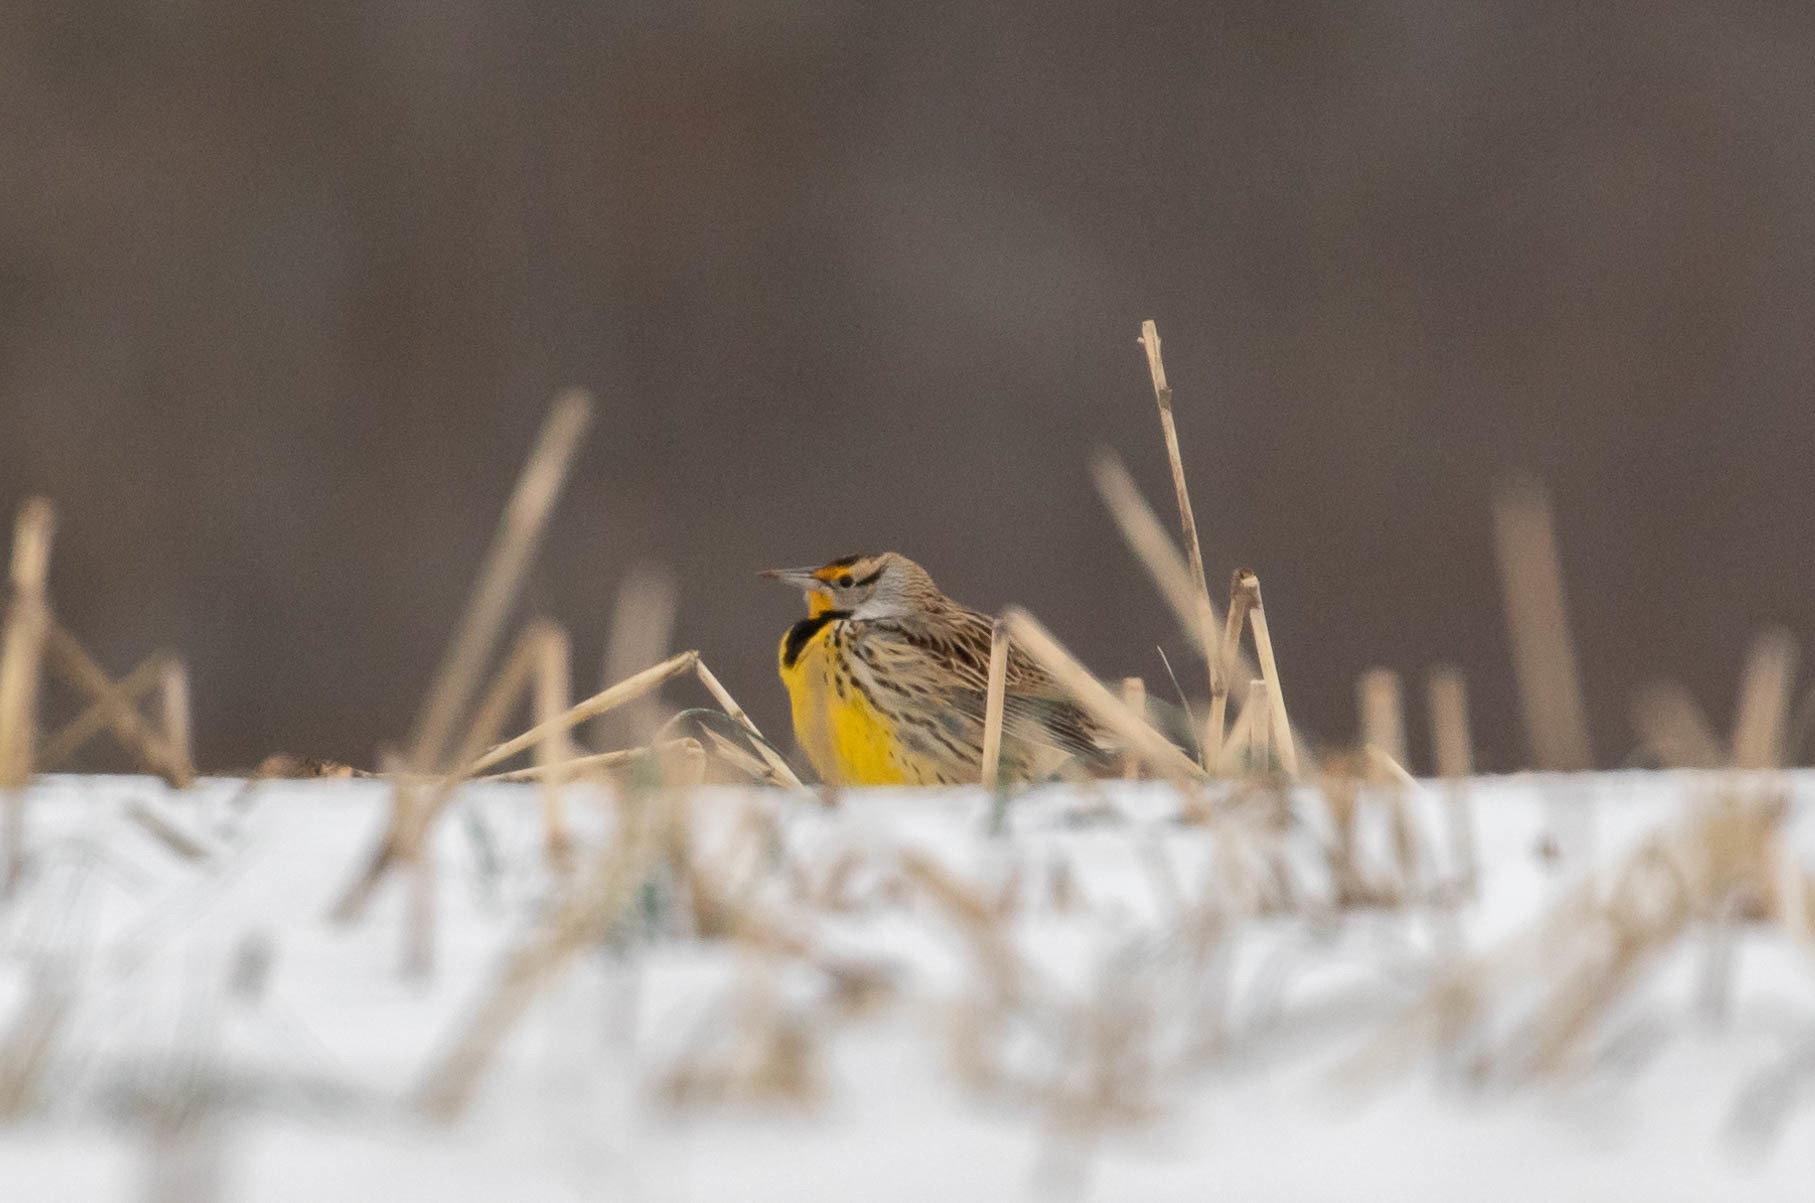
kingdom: Animalia
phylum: Chordata
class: Aves
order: Passeriformes
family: Icteridae
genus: Sturnella
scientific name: Sturnella magna
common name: Eastern meadowlark
